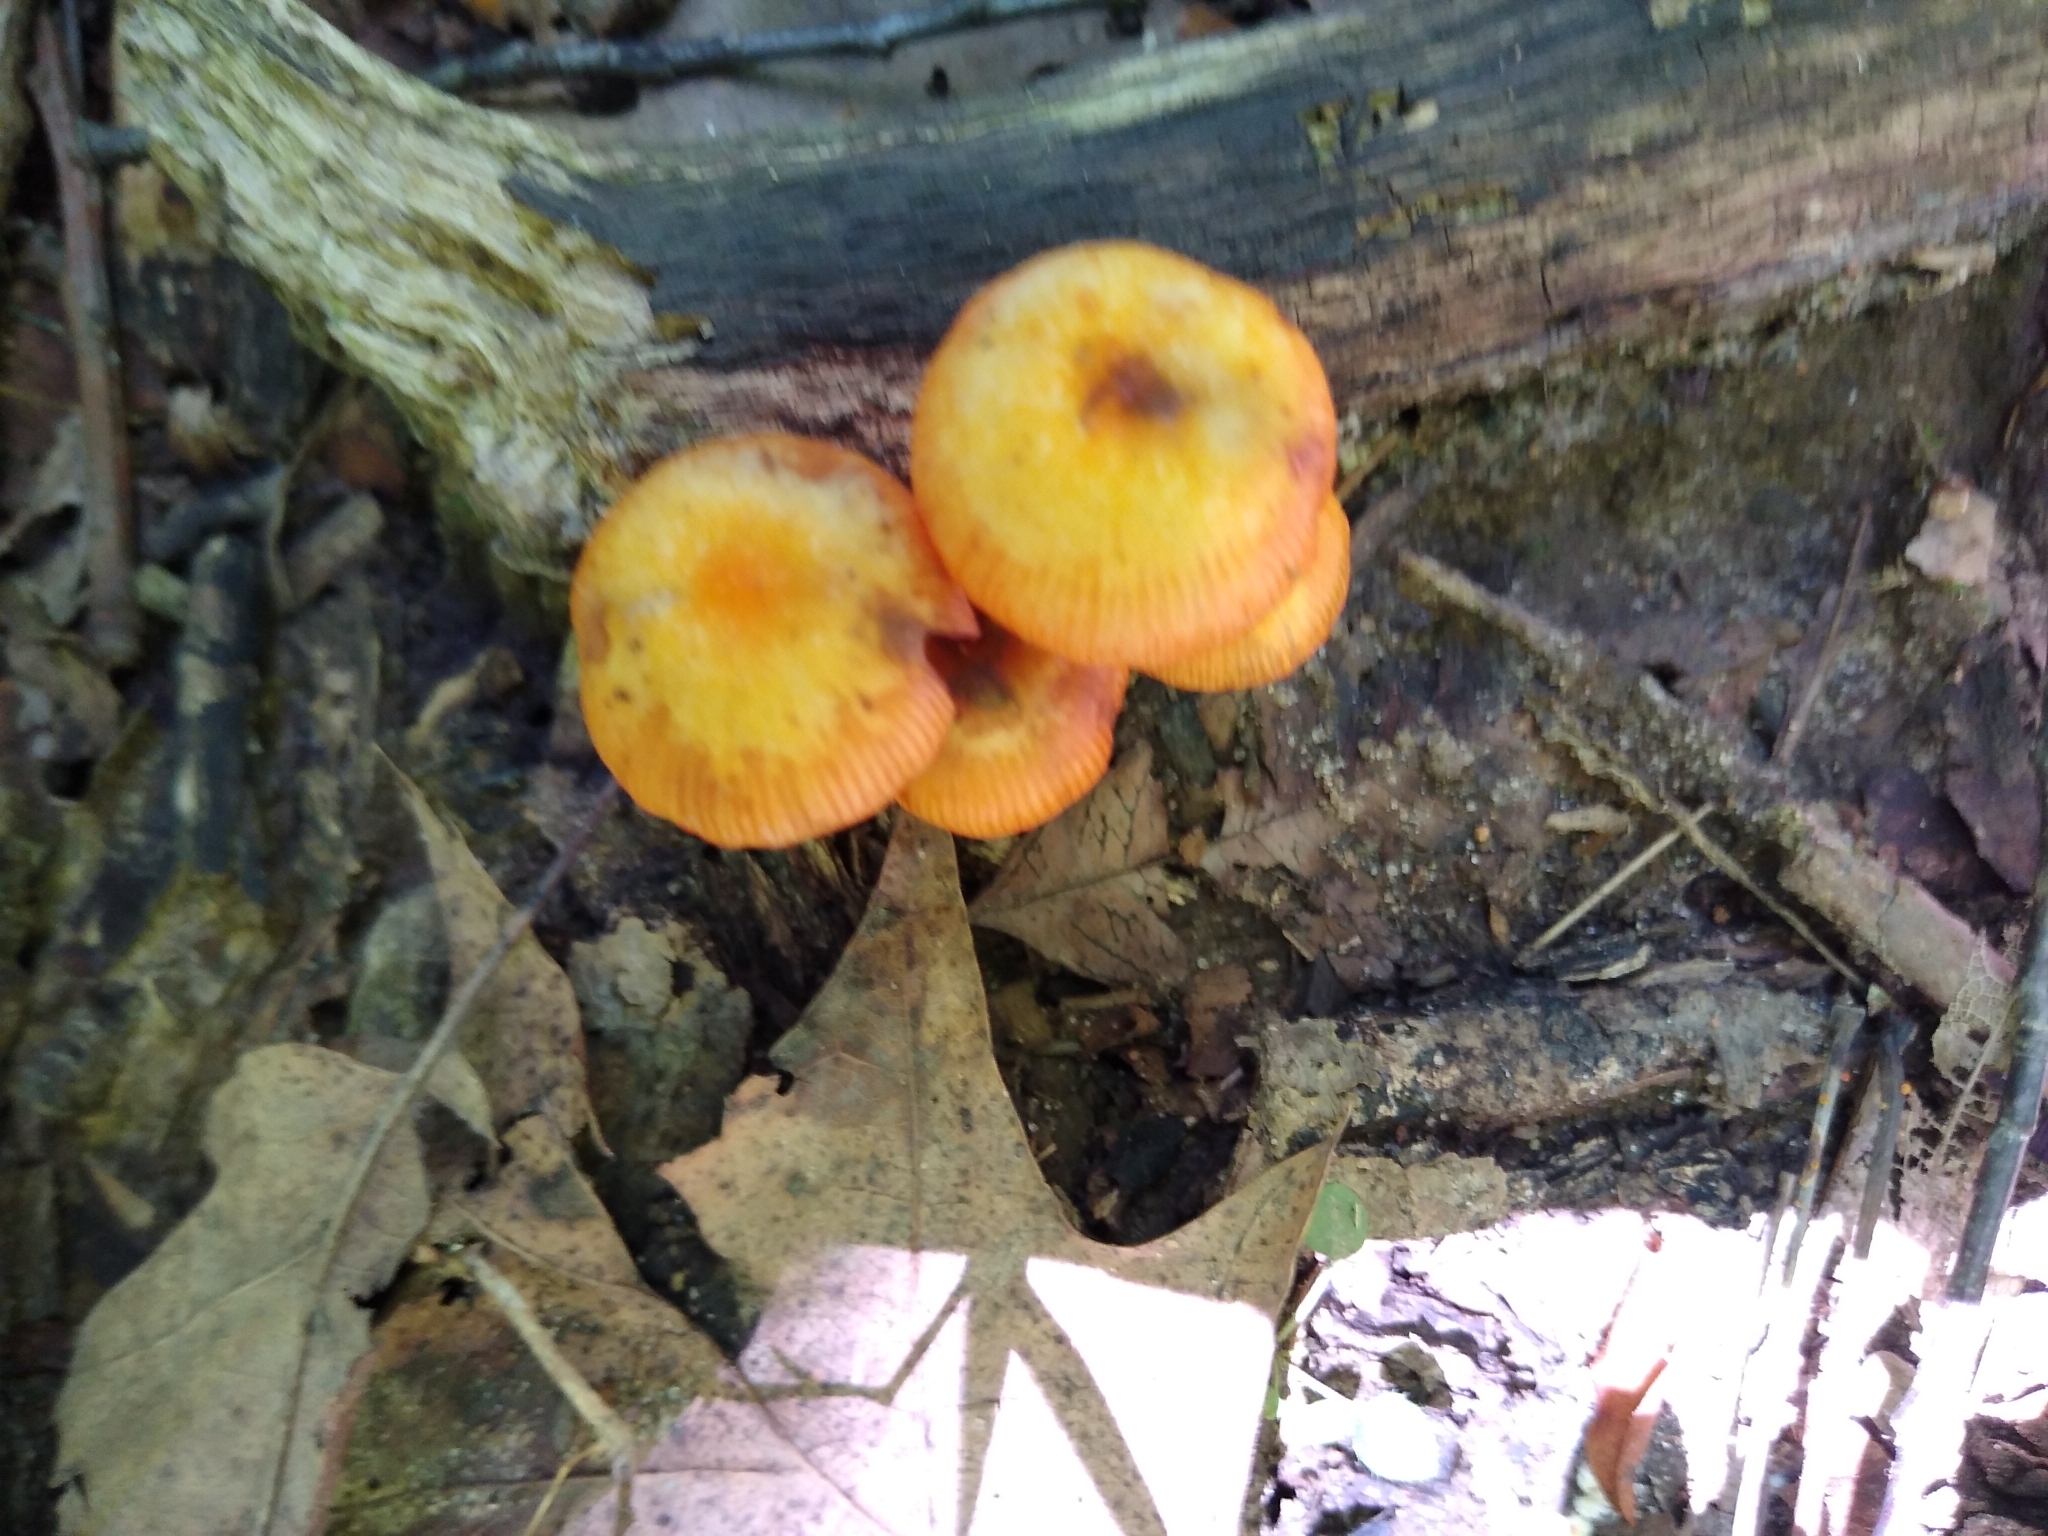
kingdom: Fungi
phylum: Basidiomycota
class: Agaricomycetes
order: Agaricales
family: Mycenaceae
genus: Mycena
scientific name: Mycena leaiana
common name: Orange mycena
